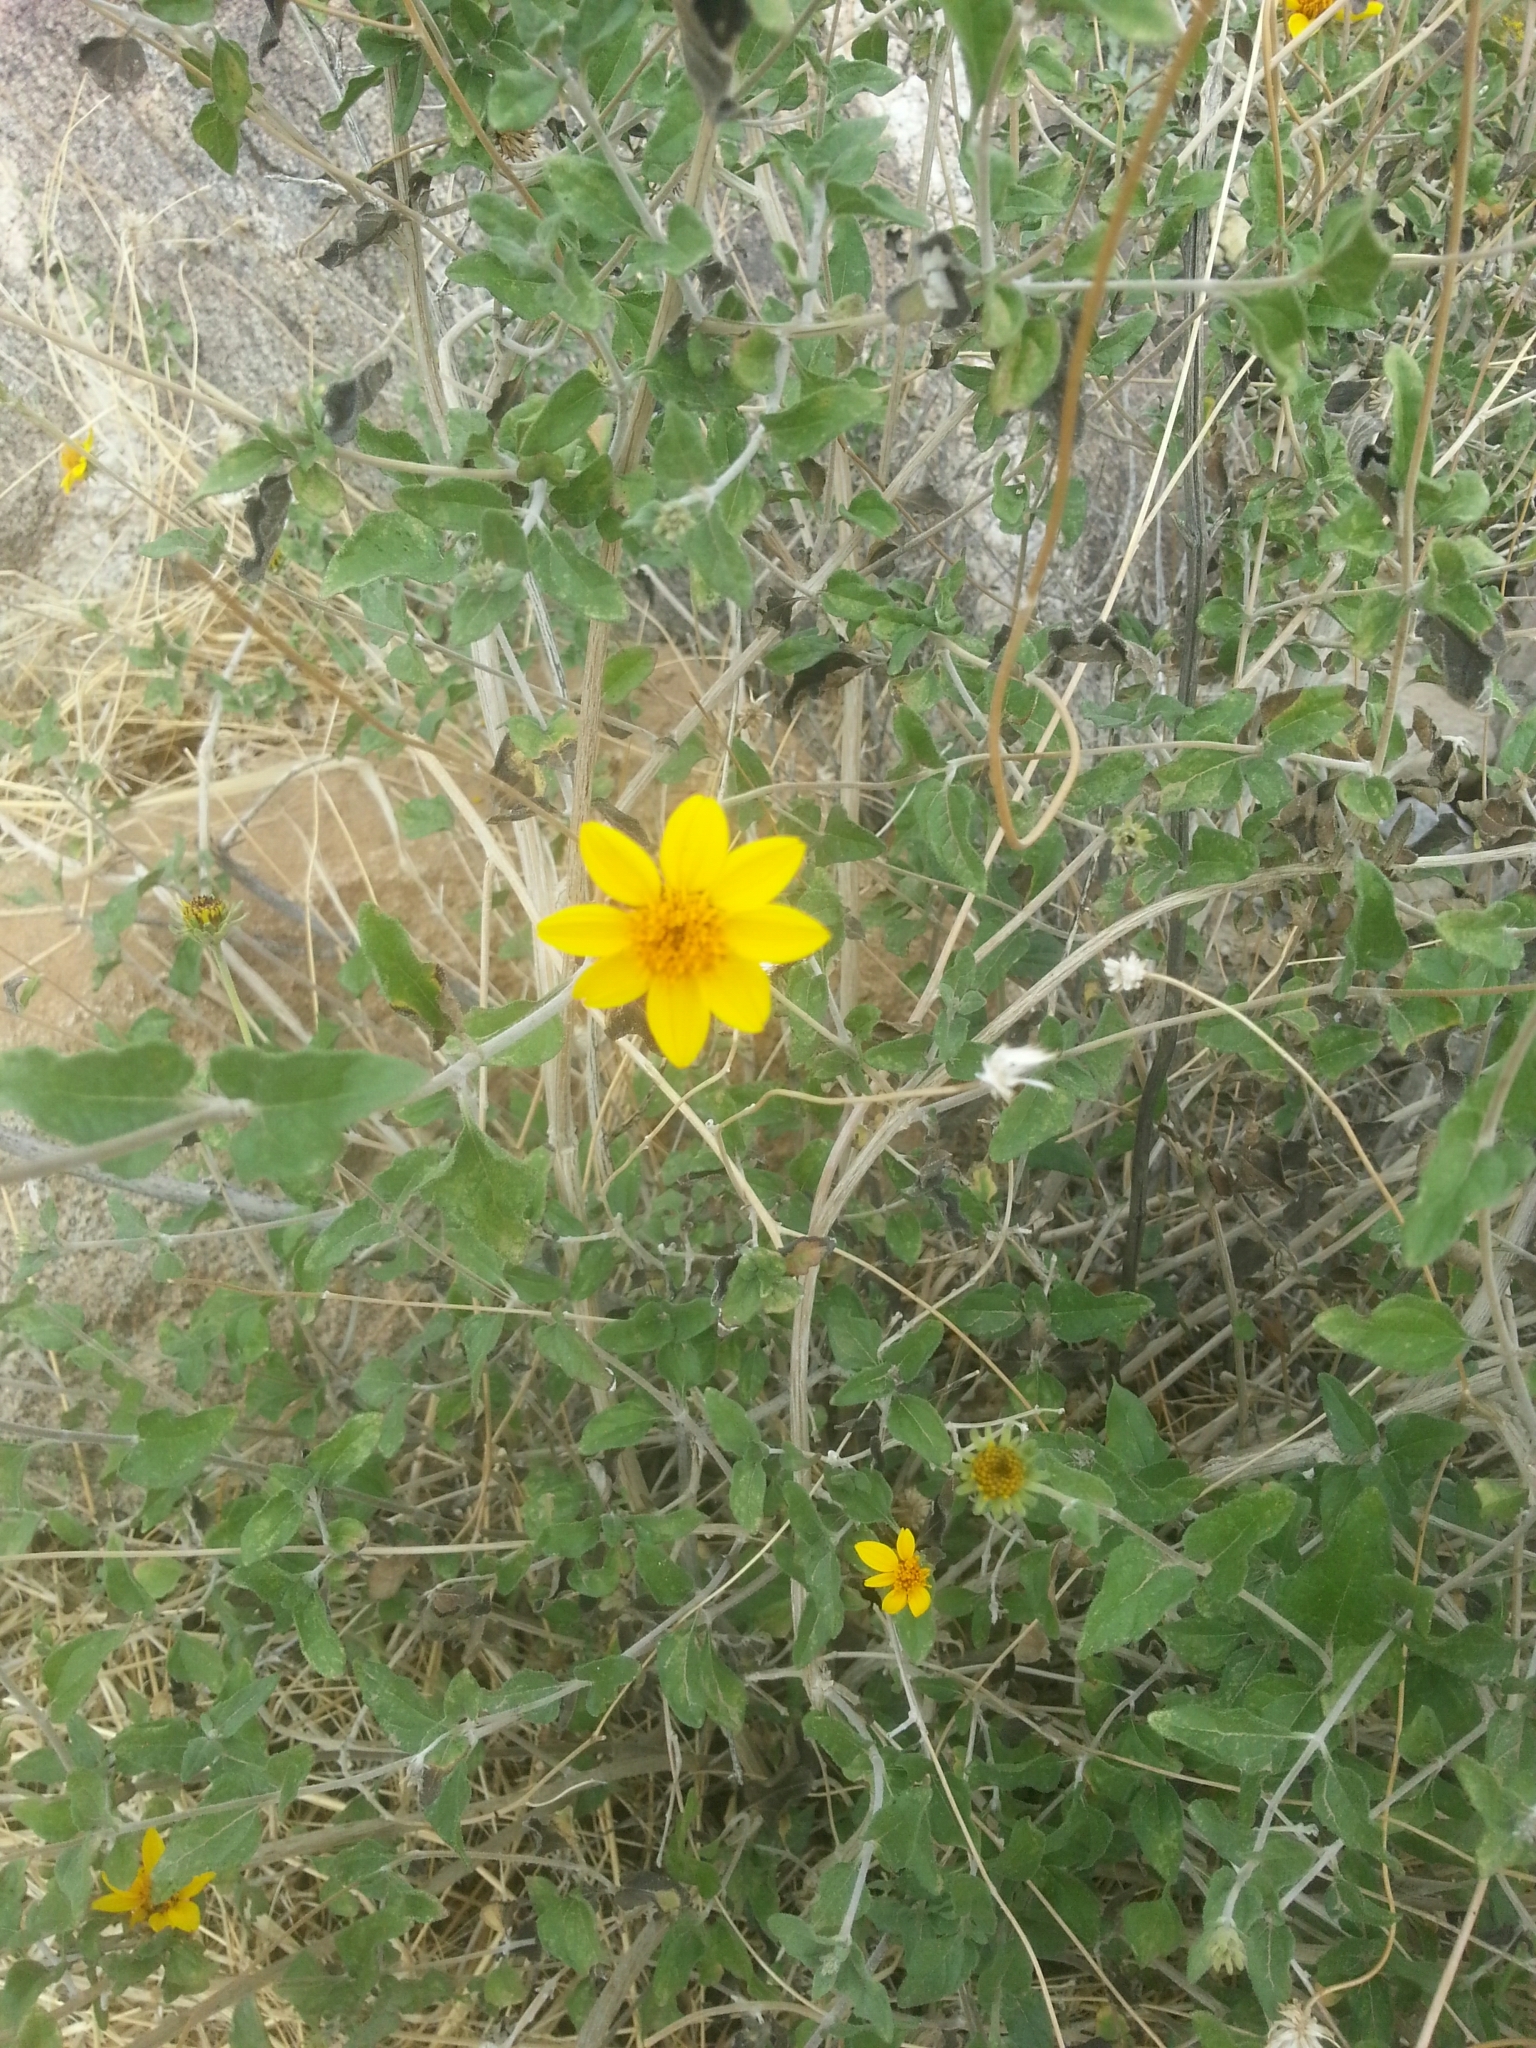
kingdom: Plantae
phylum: Tracheophyta
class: Magnoliopsida
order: Asterales
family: Asteraceae
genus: Bahiopsis
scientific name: Bahiopsis parishii
